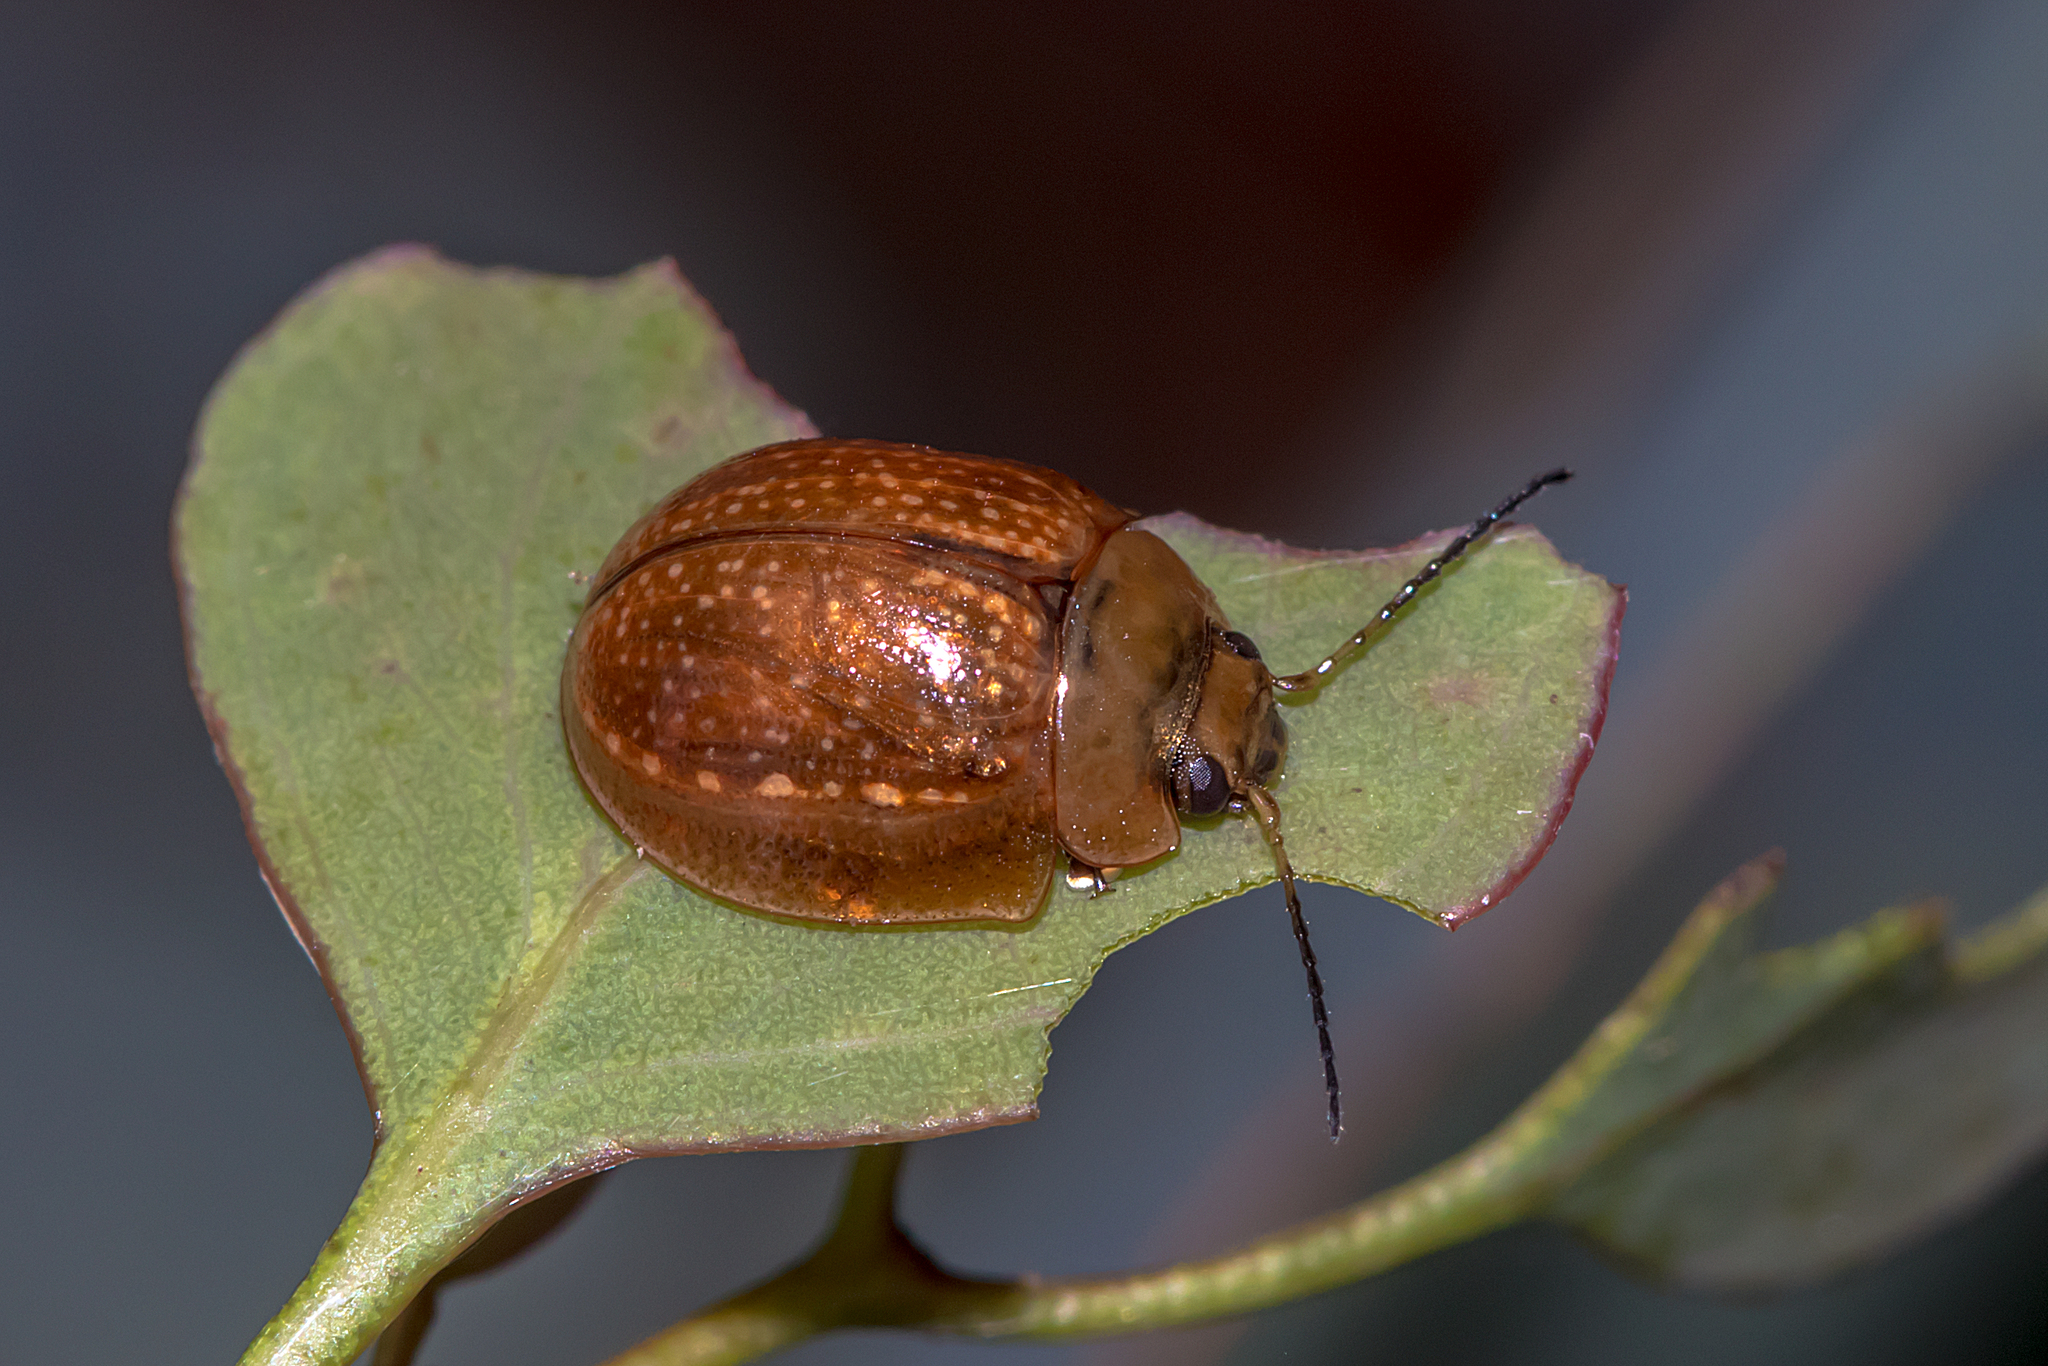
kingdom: Animalia
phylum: Arthropoda
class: Insecta
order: Coleoptera
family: Chrysomelidae
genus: Paropsisterna
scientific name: Paropsisterna cloelia
